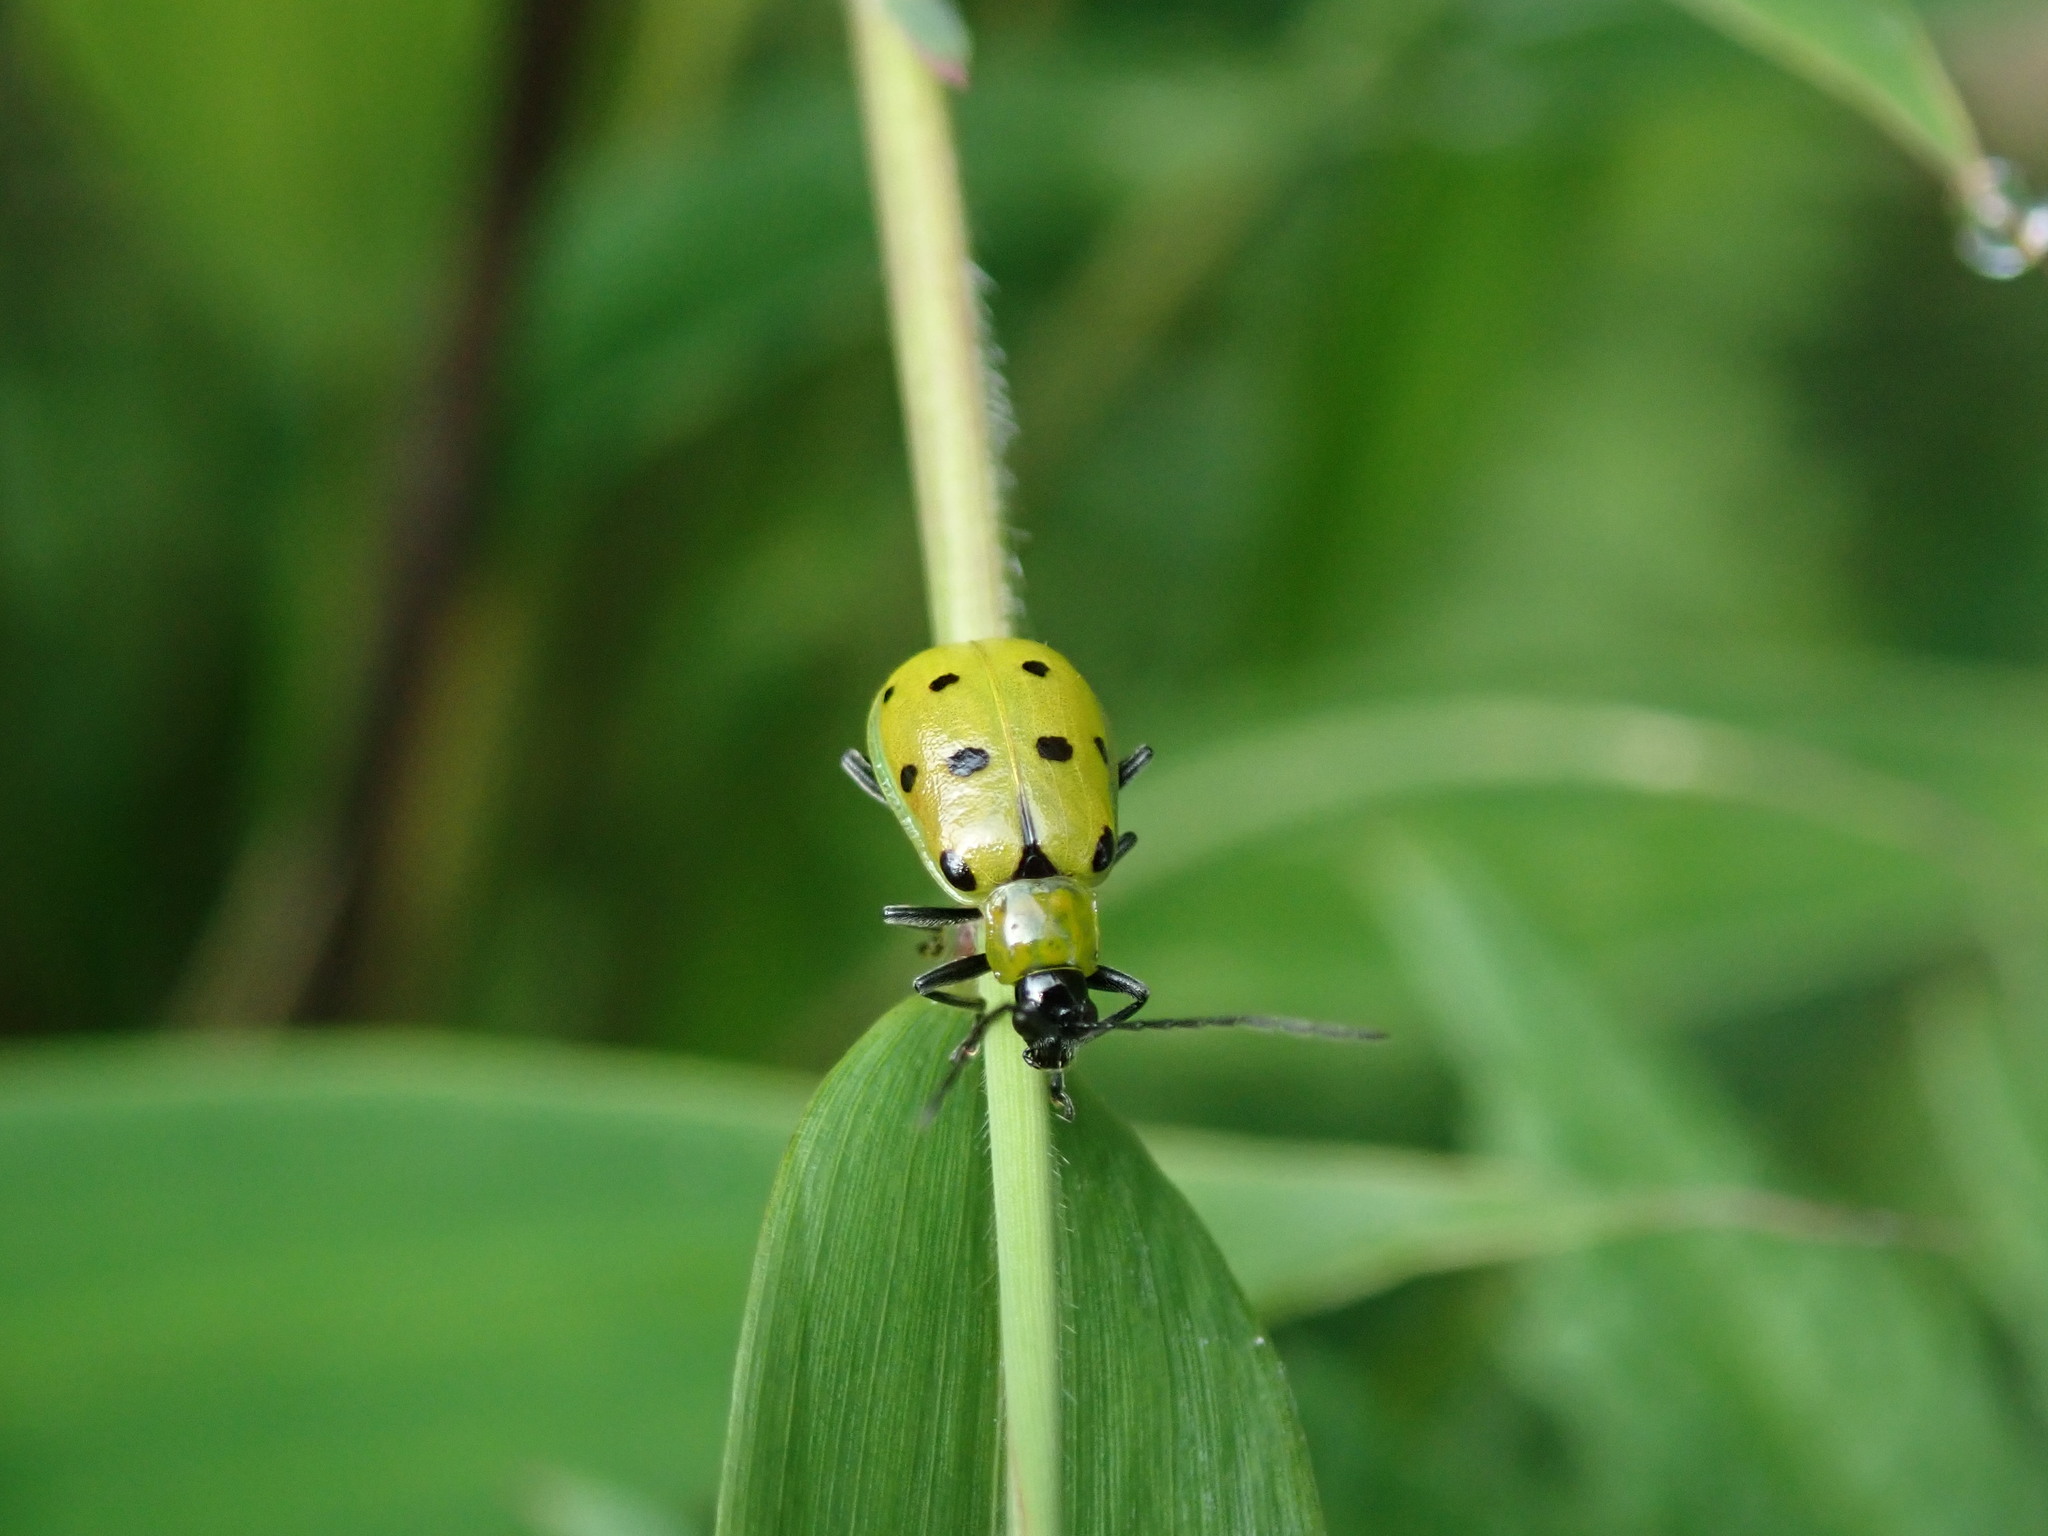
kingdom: Animalia
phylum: Arthropoda
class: Insecta
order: Coleoptera
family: Chrysomelidae
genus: Diabrotica
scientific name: Diabrotica decempunctata
